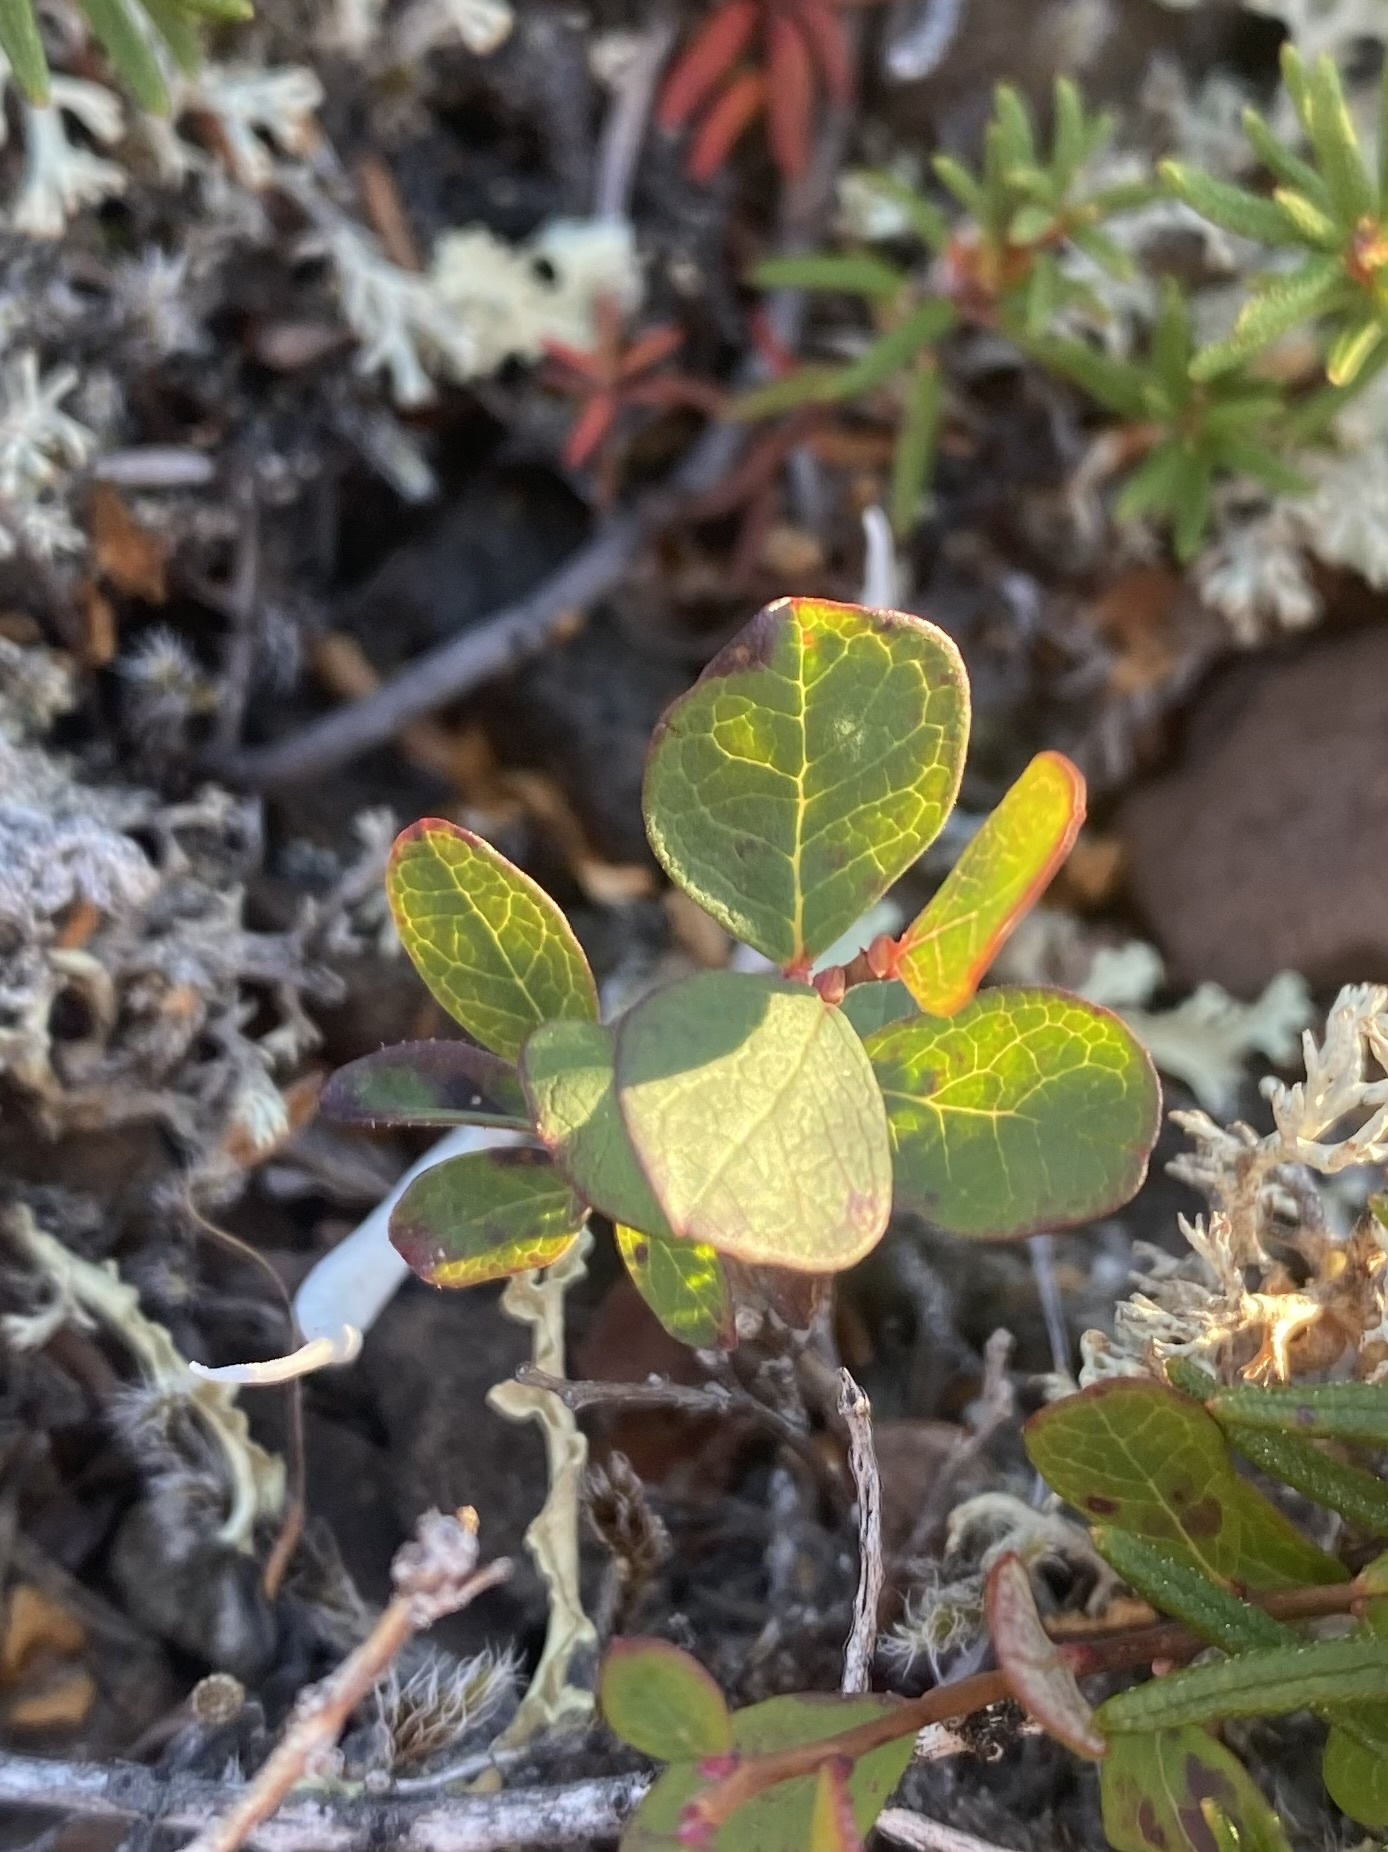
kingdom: Plantae
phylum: Tracheophyta
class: Magnoliopsida
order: Ericales
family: Ericaceae
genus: Vaccinium
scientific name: Vaccinium uliginosum
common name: Bog bilberry
